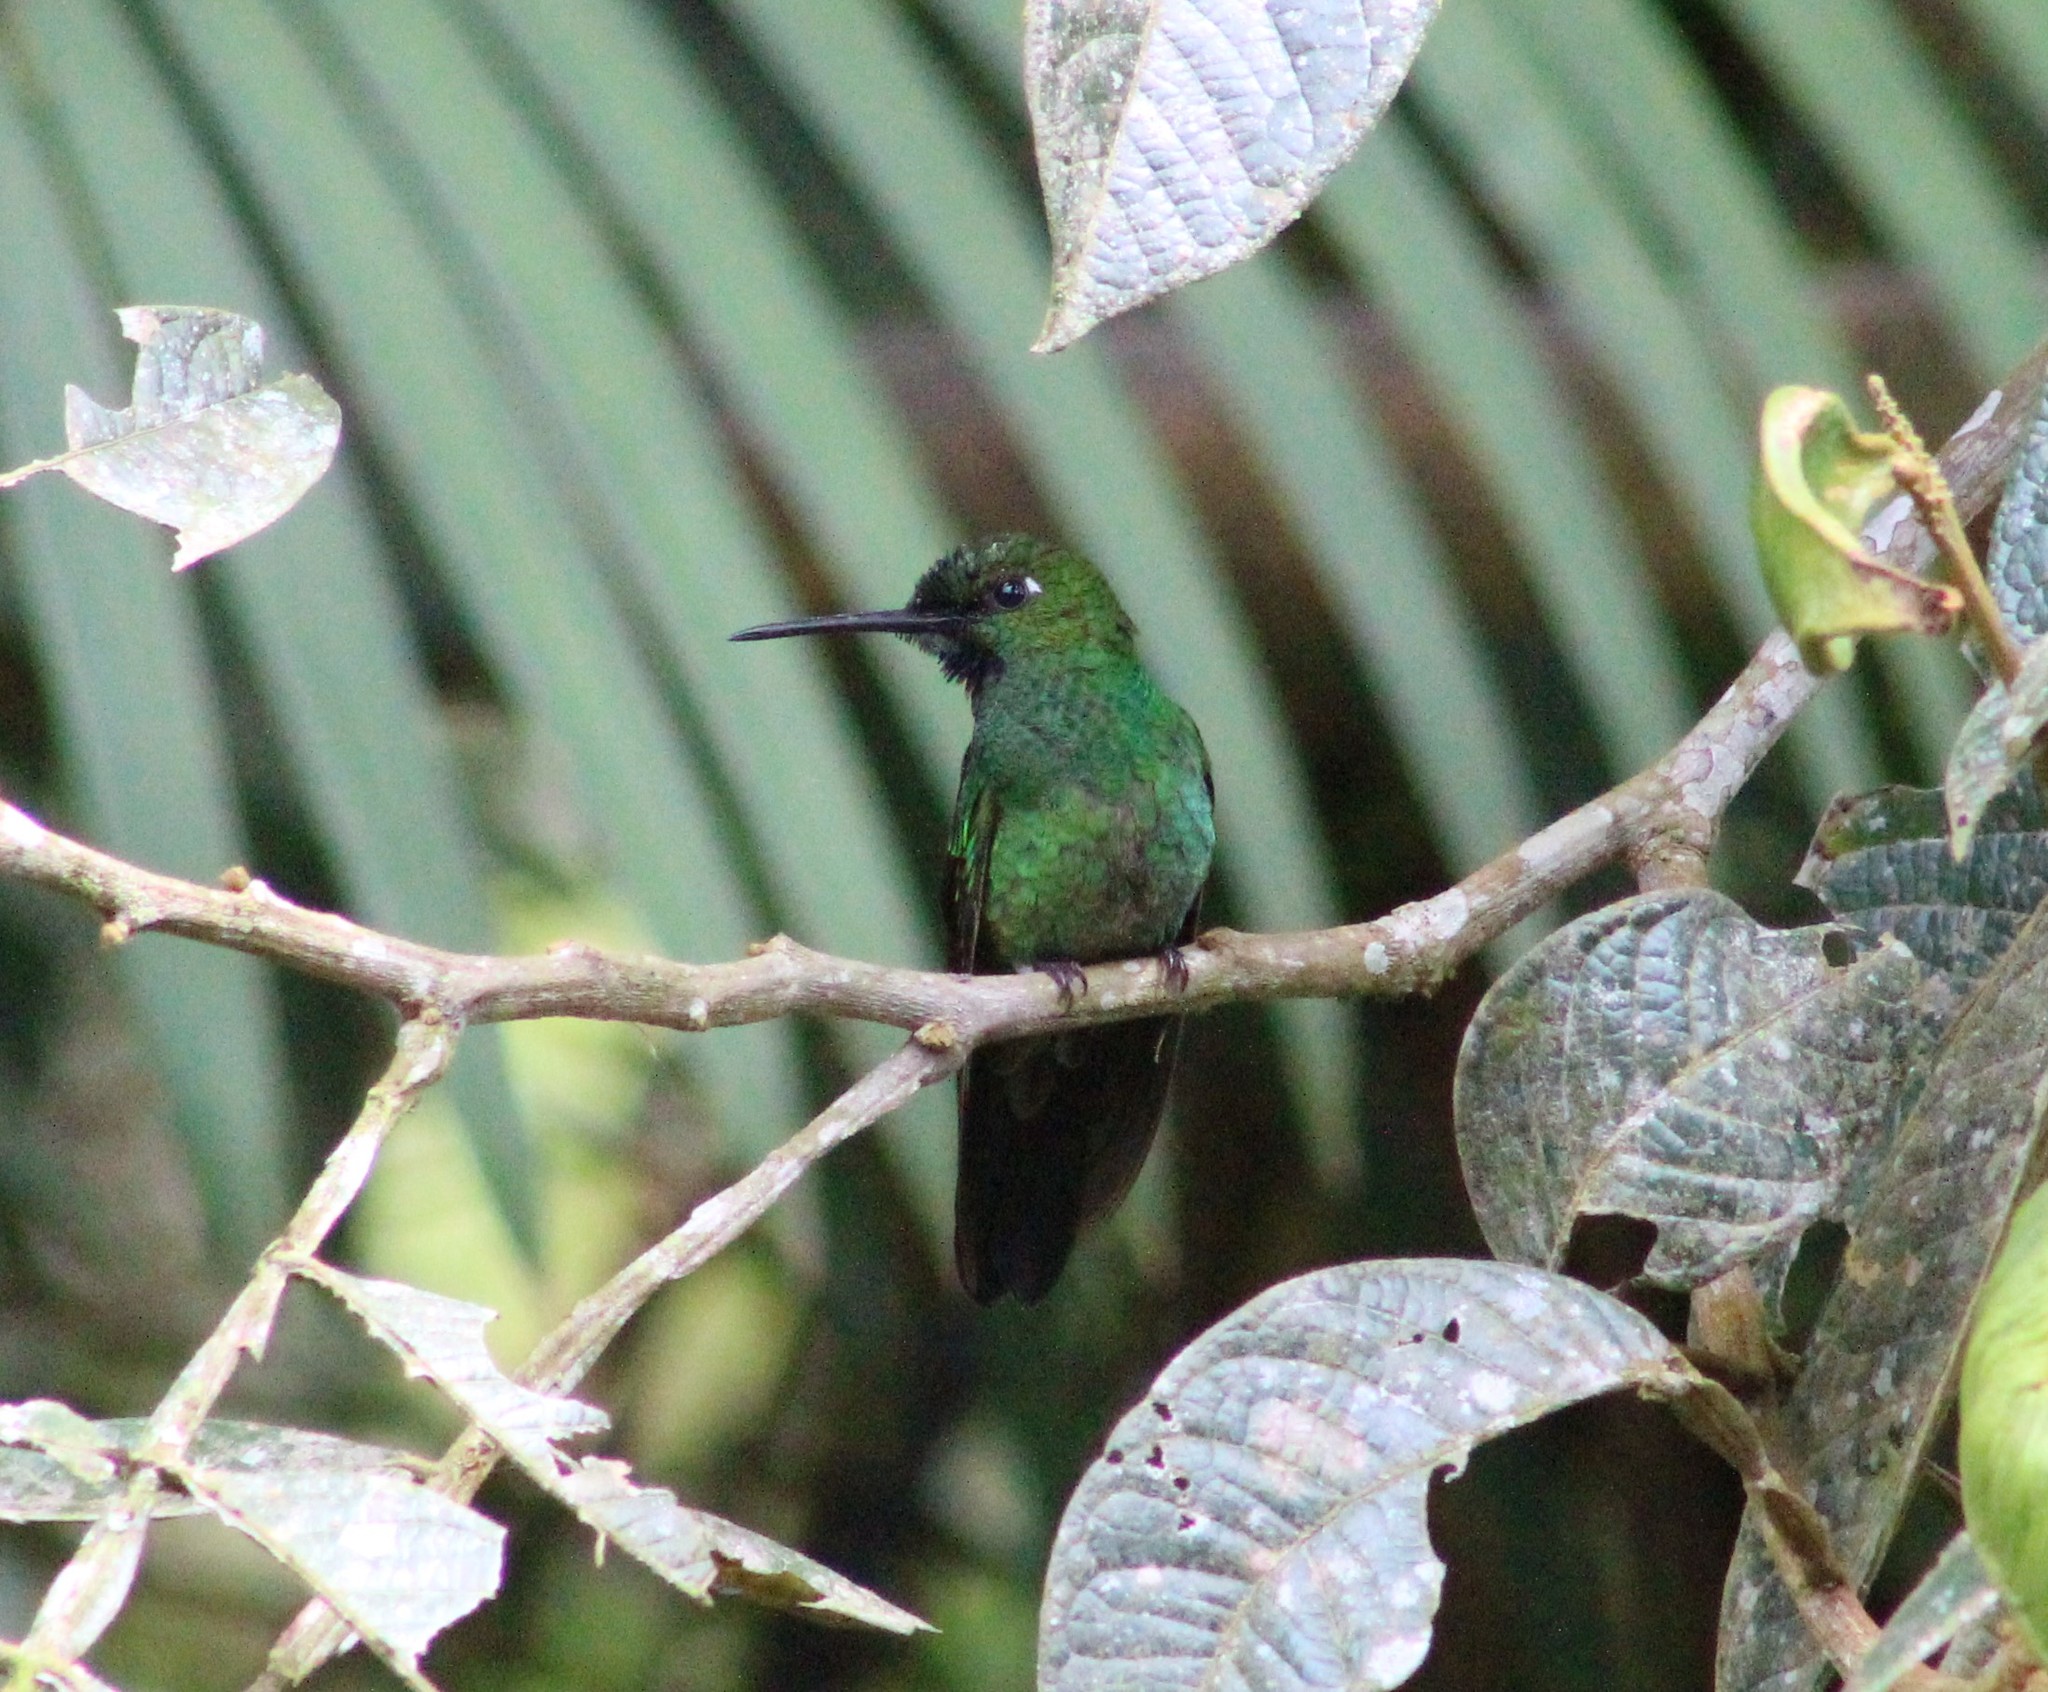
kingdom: Animalia
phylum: Chordata
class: Aves
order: Apodiformes
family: Trochilidae
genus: Heliodoxa
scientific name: Heliodoxa jacula
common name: Green-crowned brilliant
